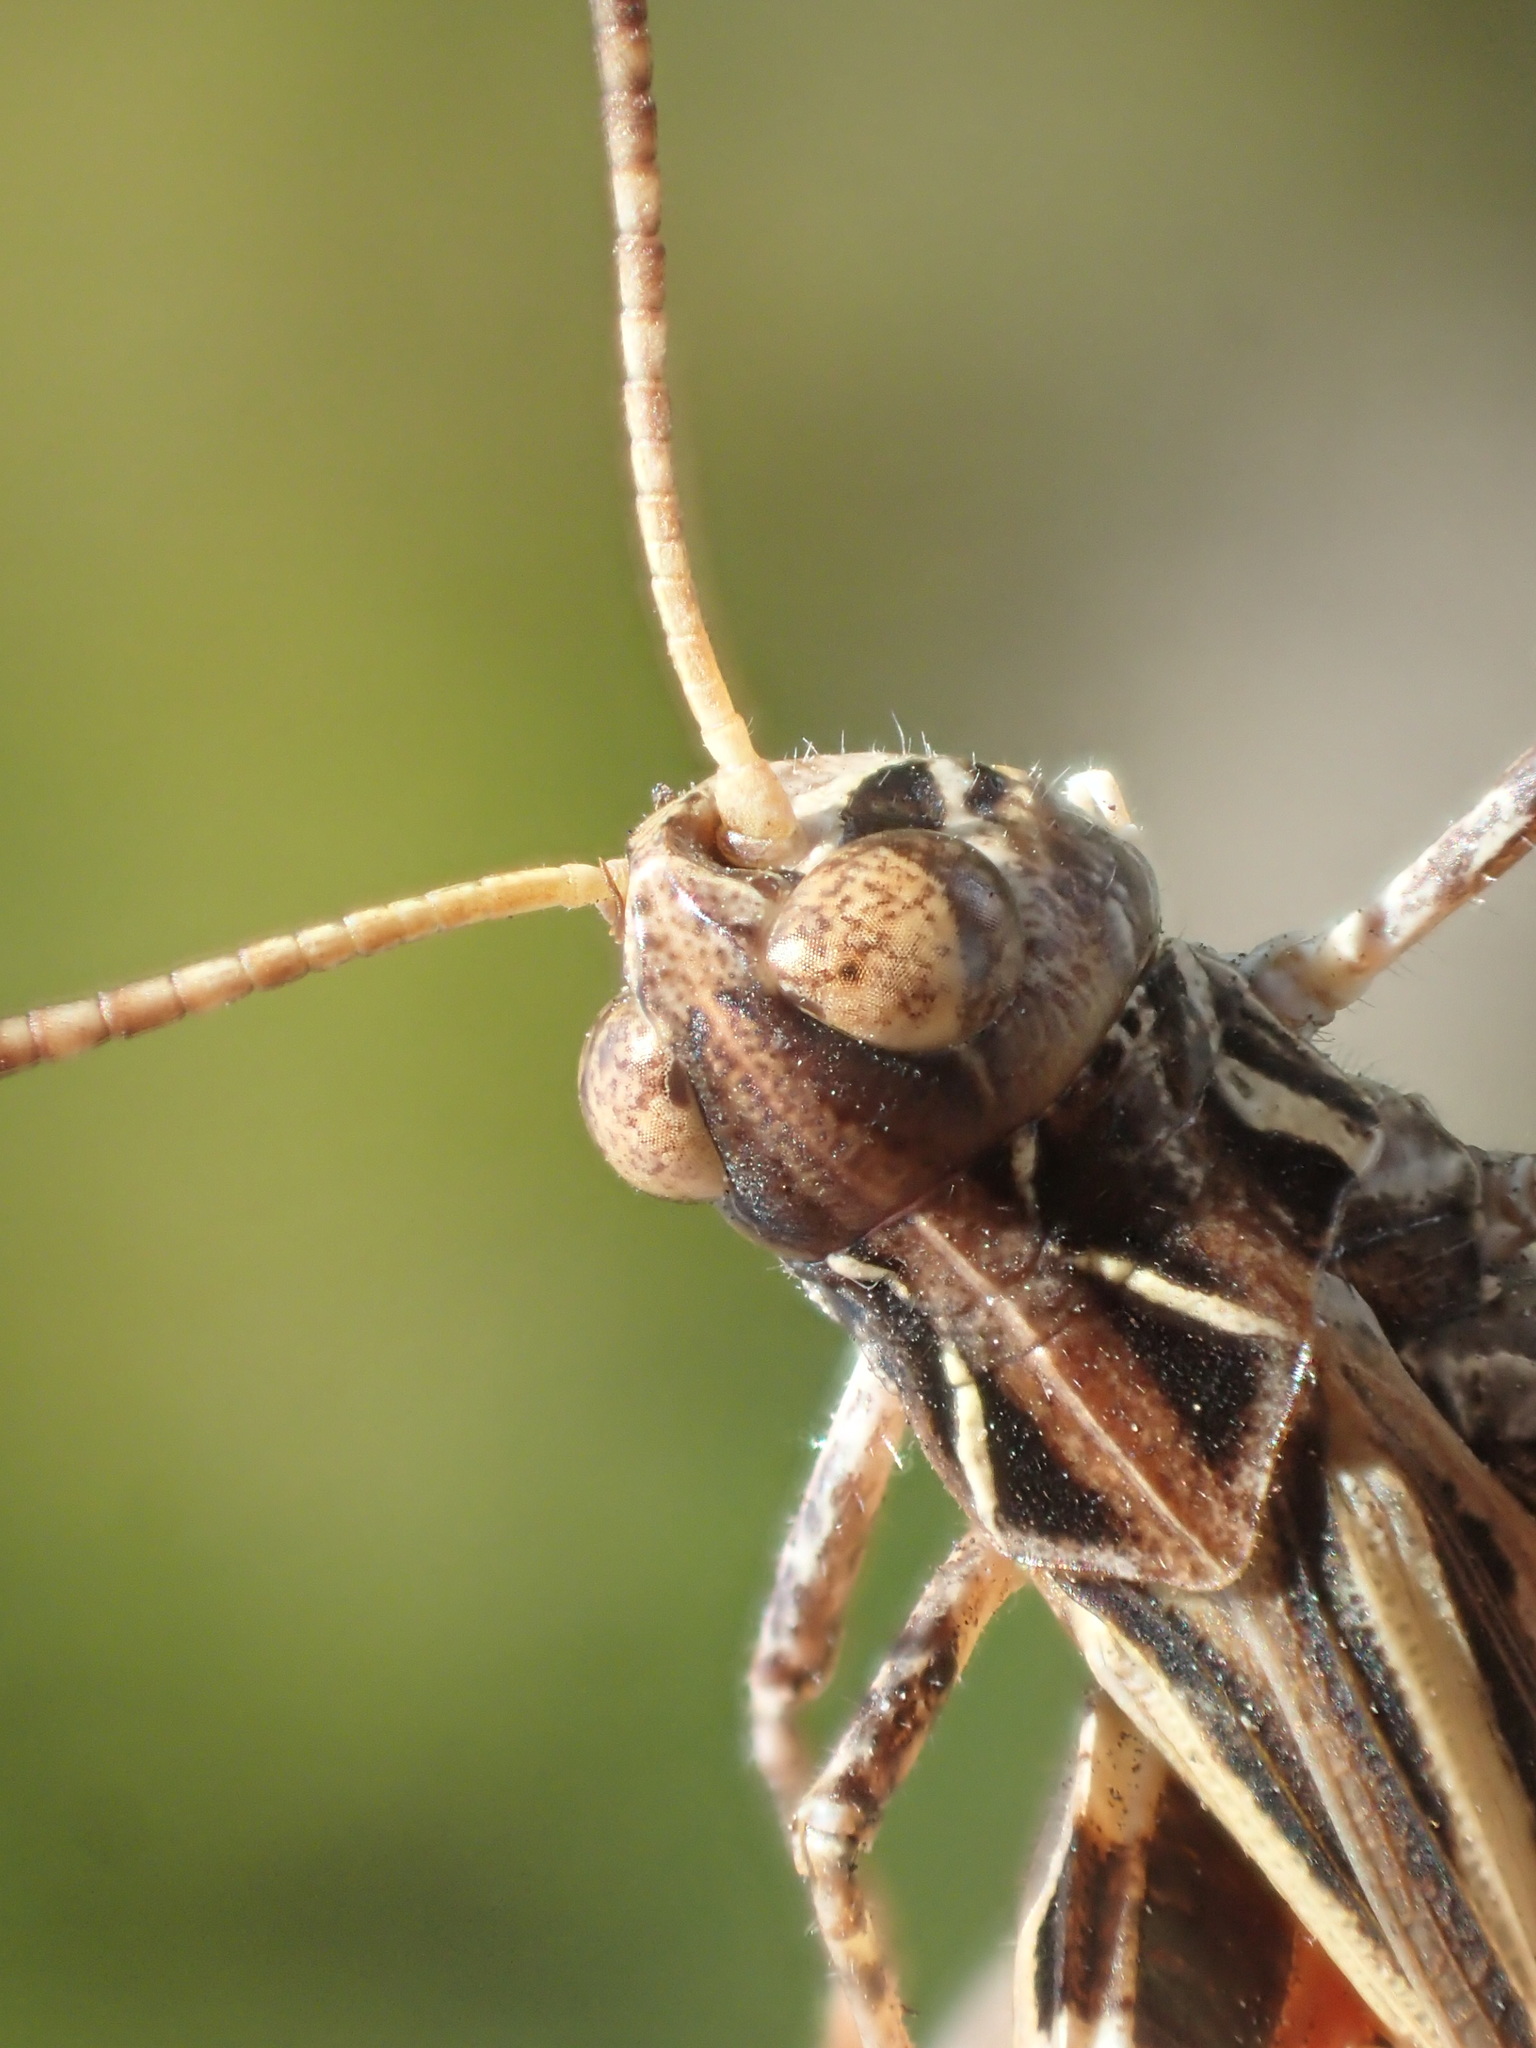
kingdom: Animalia
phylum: Arthropoda
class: Insecta
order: Orthoptera
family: Acrididae
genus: Austroicetes
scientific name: Austroicetes vulgaris
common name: Southeastern austroicetes
